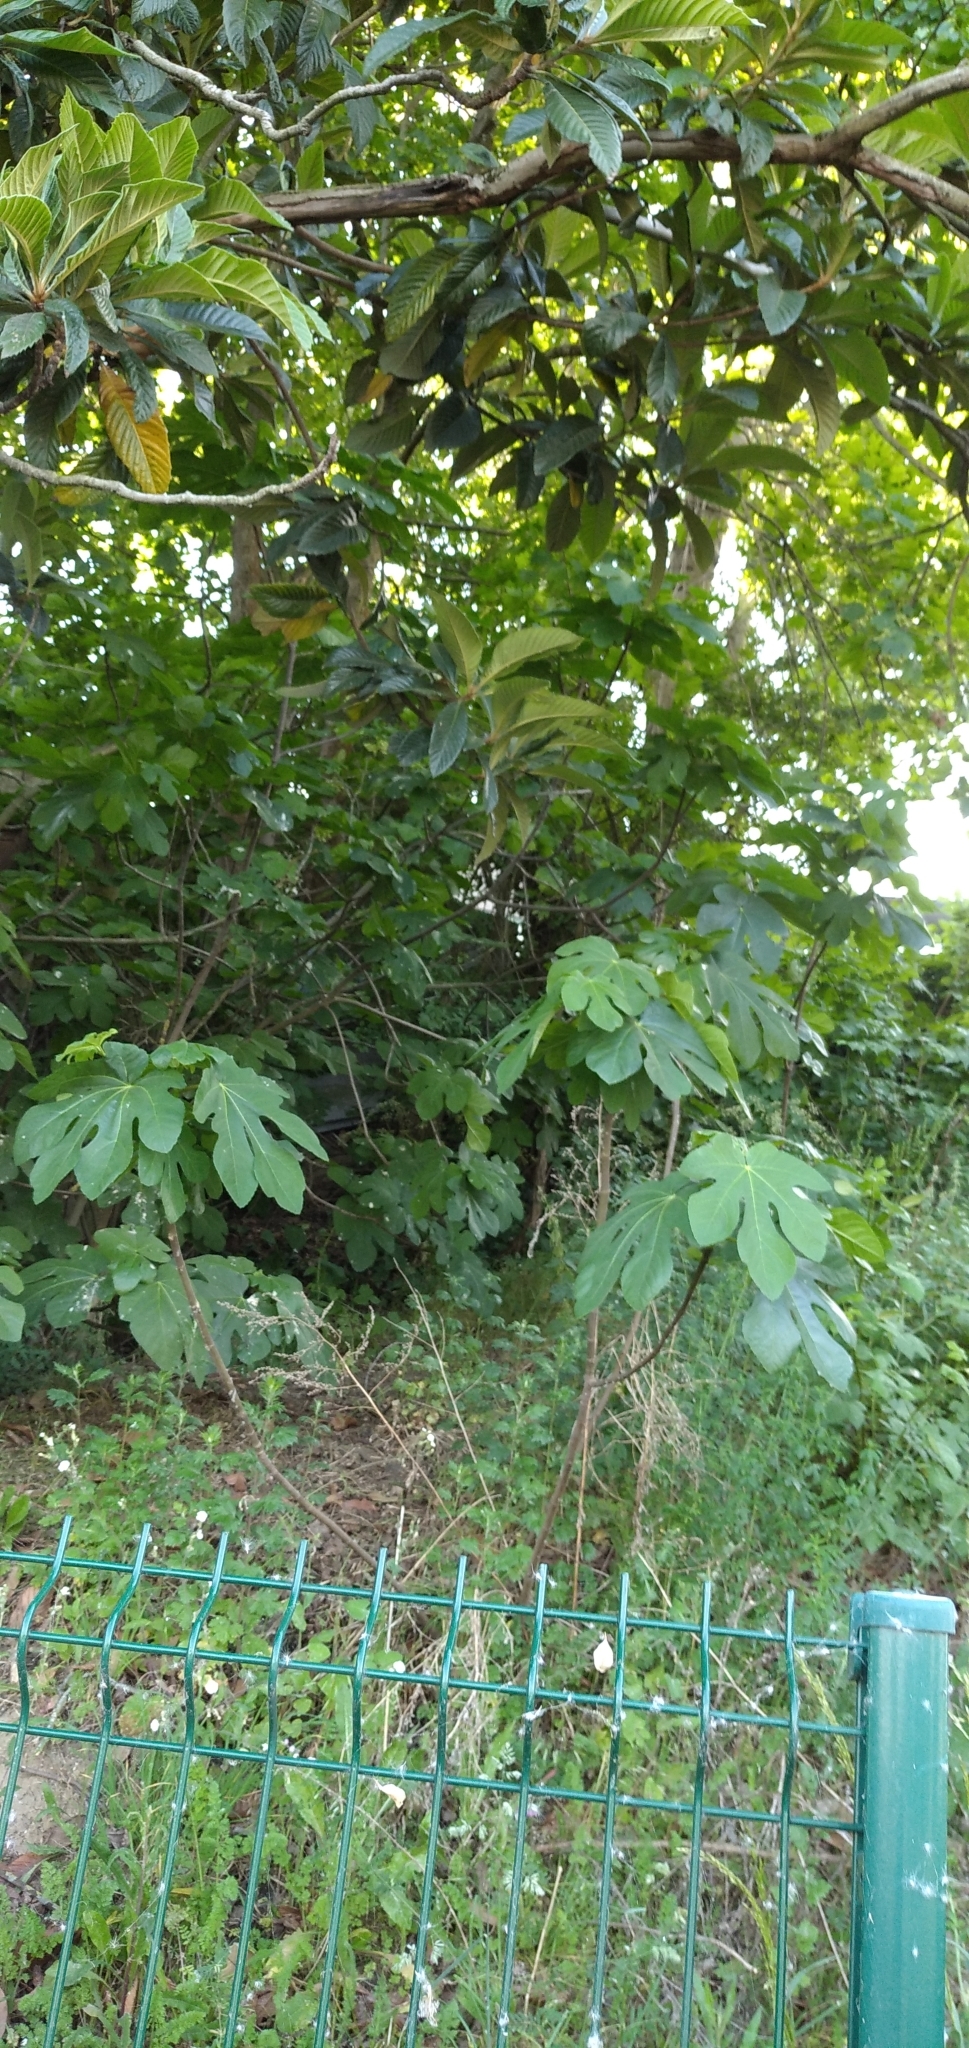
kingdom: Plantae
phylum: Tracheophyta
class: Magnoliopsida
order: Rosales
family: Moraceae
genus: Ficus
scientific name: Ficus carica
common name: Fig
